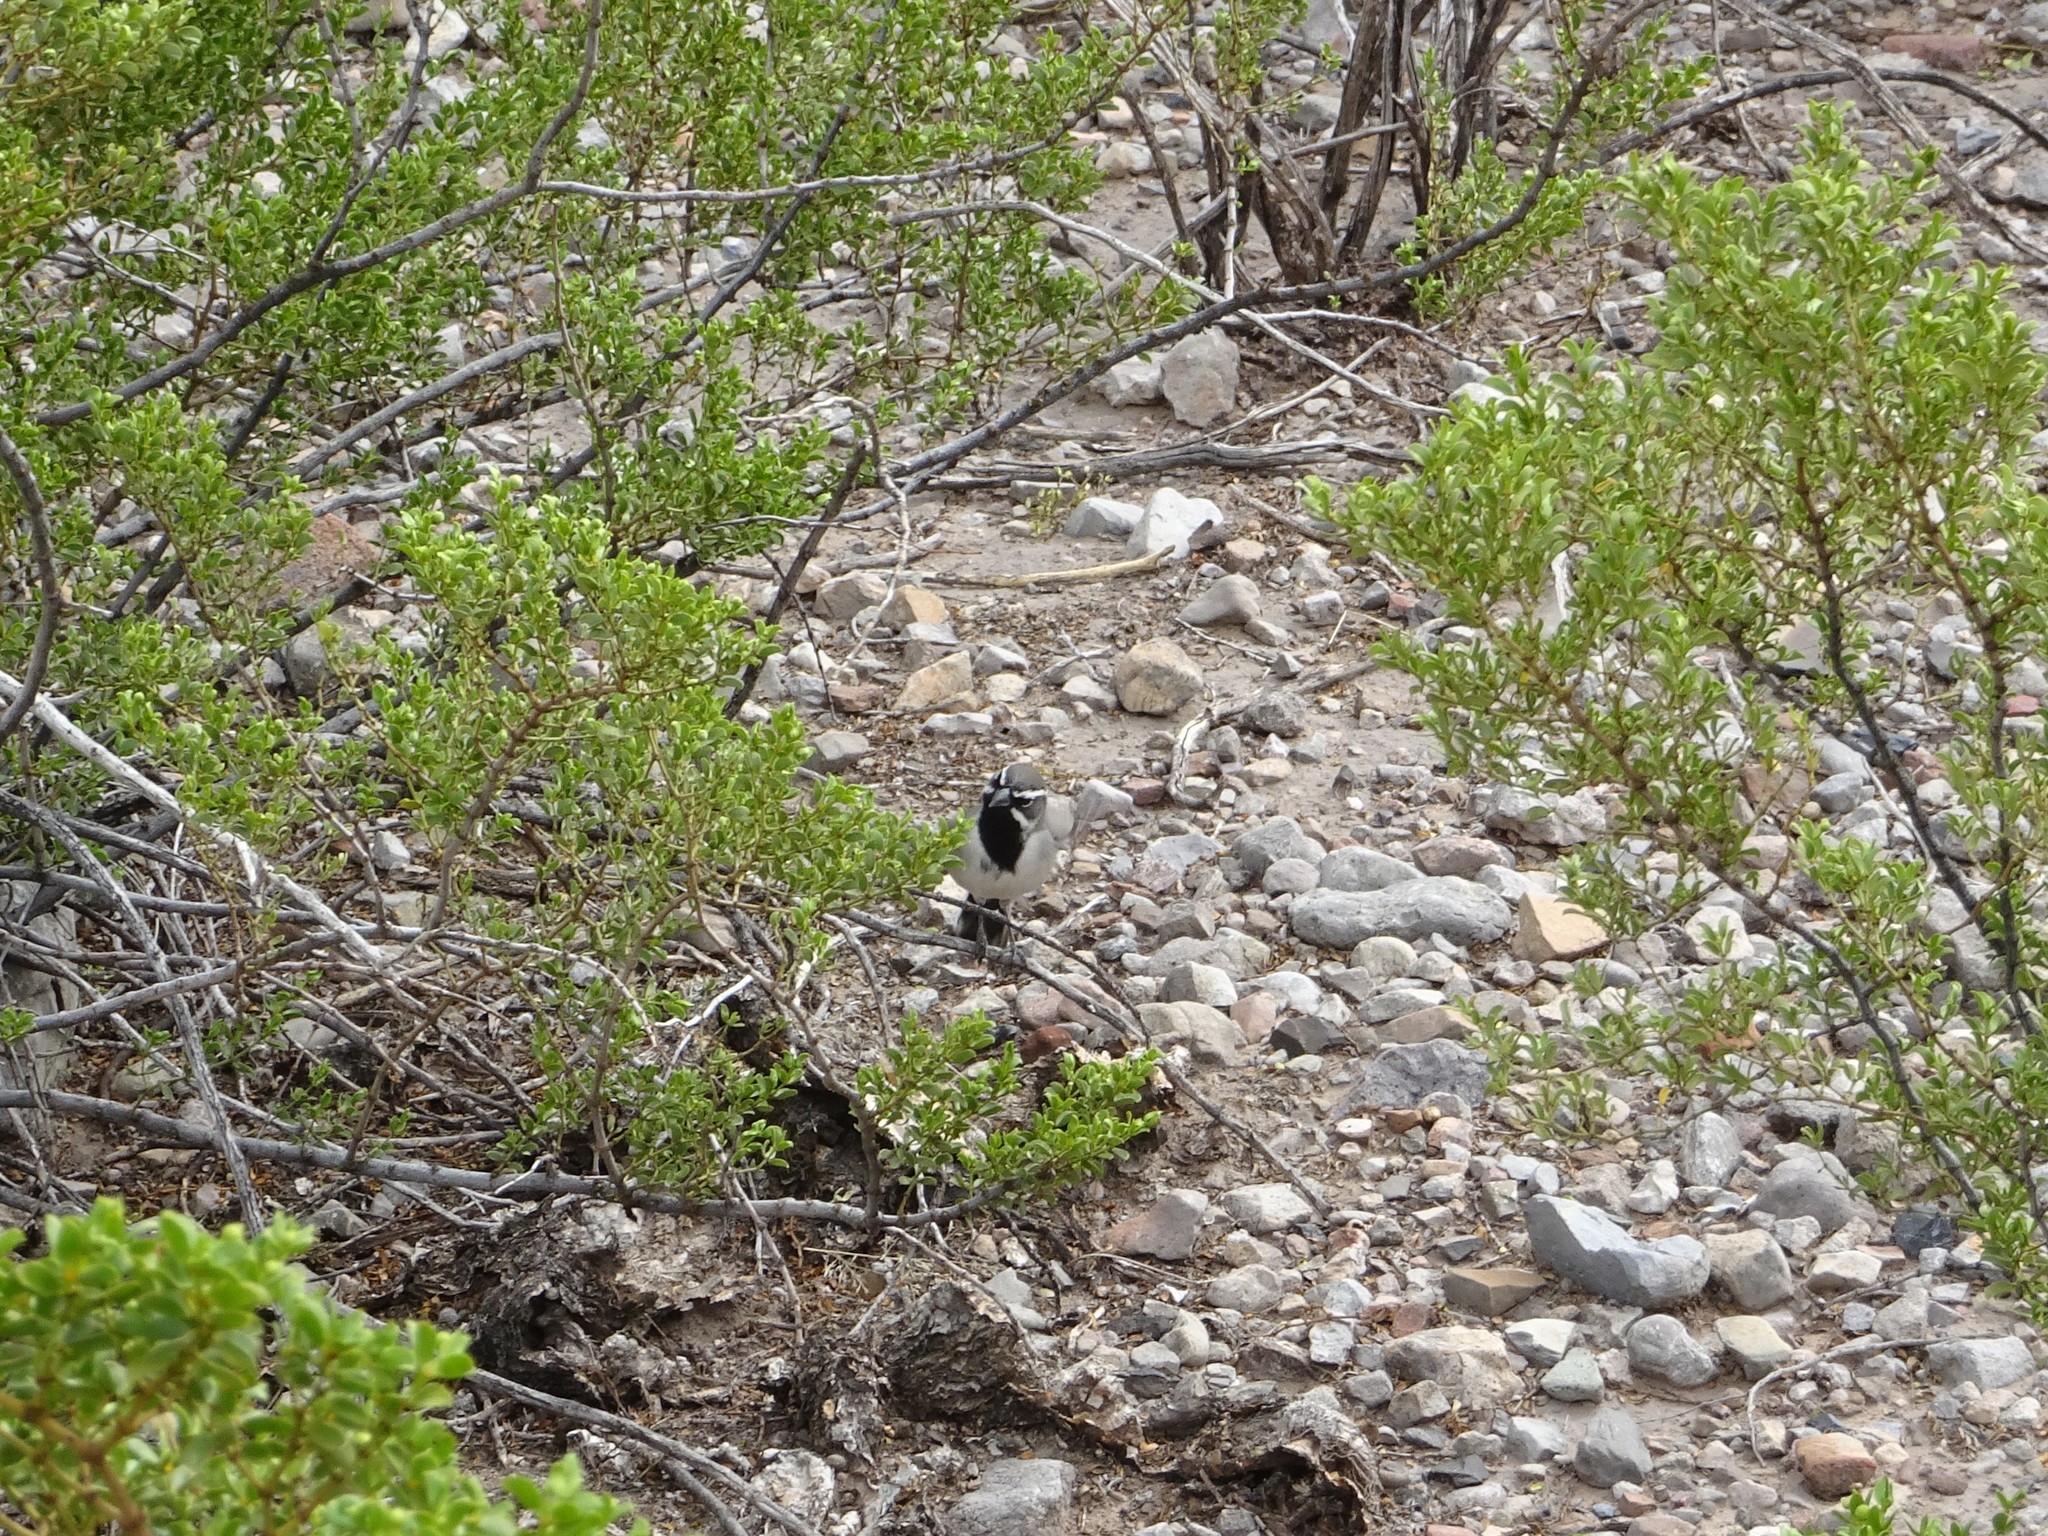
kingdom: Animalia
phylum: Chordata
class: Aves
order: Passeriformes
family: Passerellidae
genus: Amphispiza
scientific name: Amphispiza bilineata
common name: Black-throated sparrow
